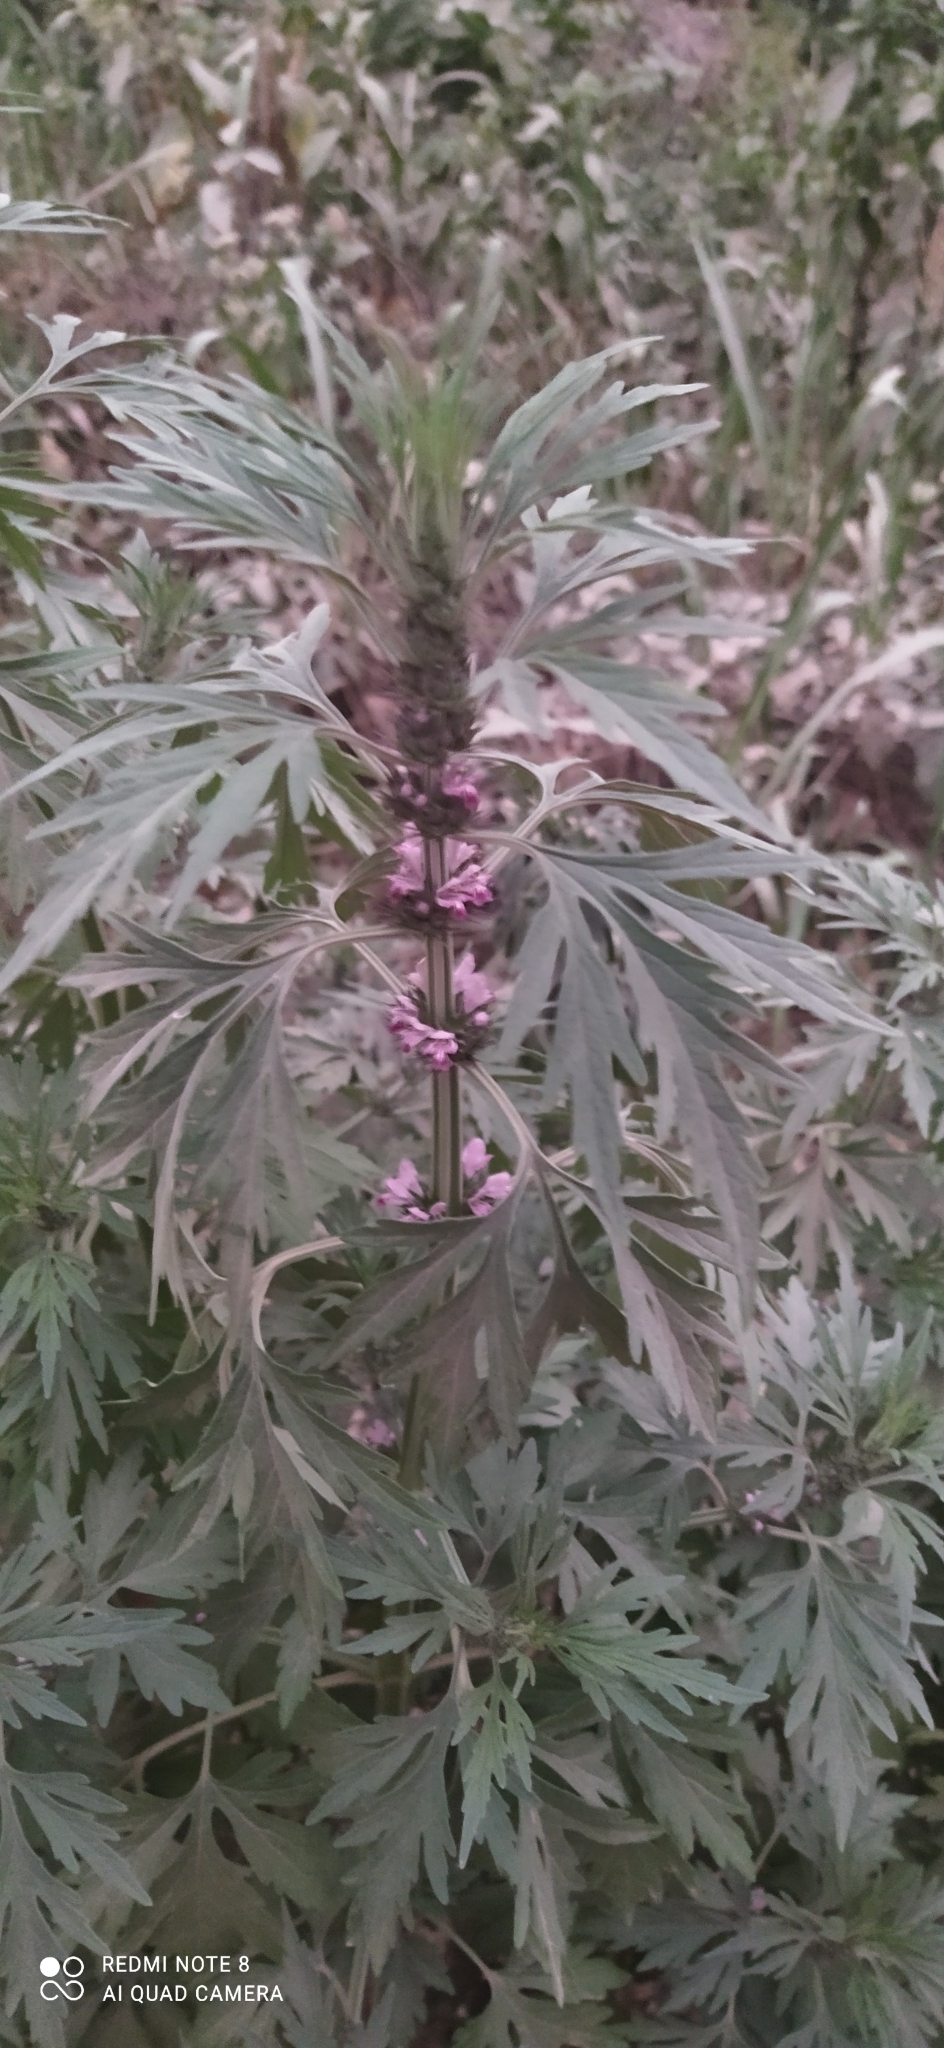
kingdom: Plantae
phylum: Tracheophyta
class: Magnoliopsida
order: Lamiales
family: Lamiaceae
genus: Leonurus
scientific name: Leonurus japonicus
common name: Honeyweed
